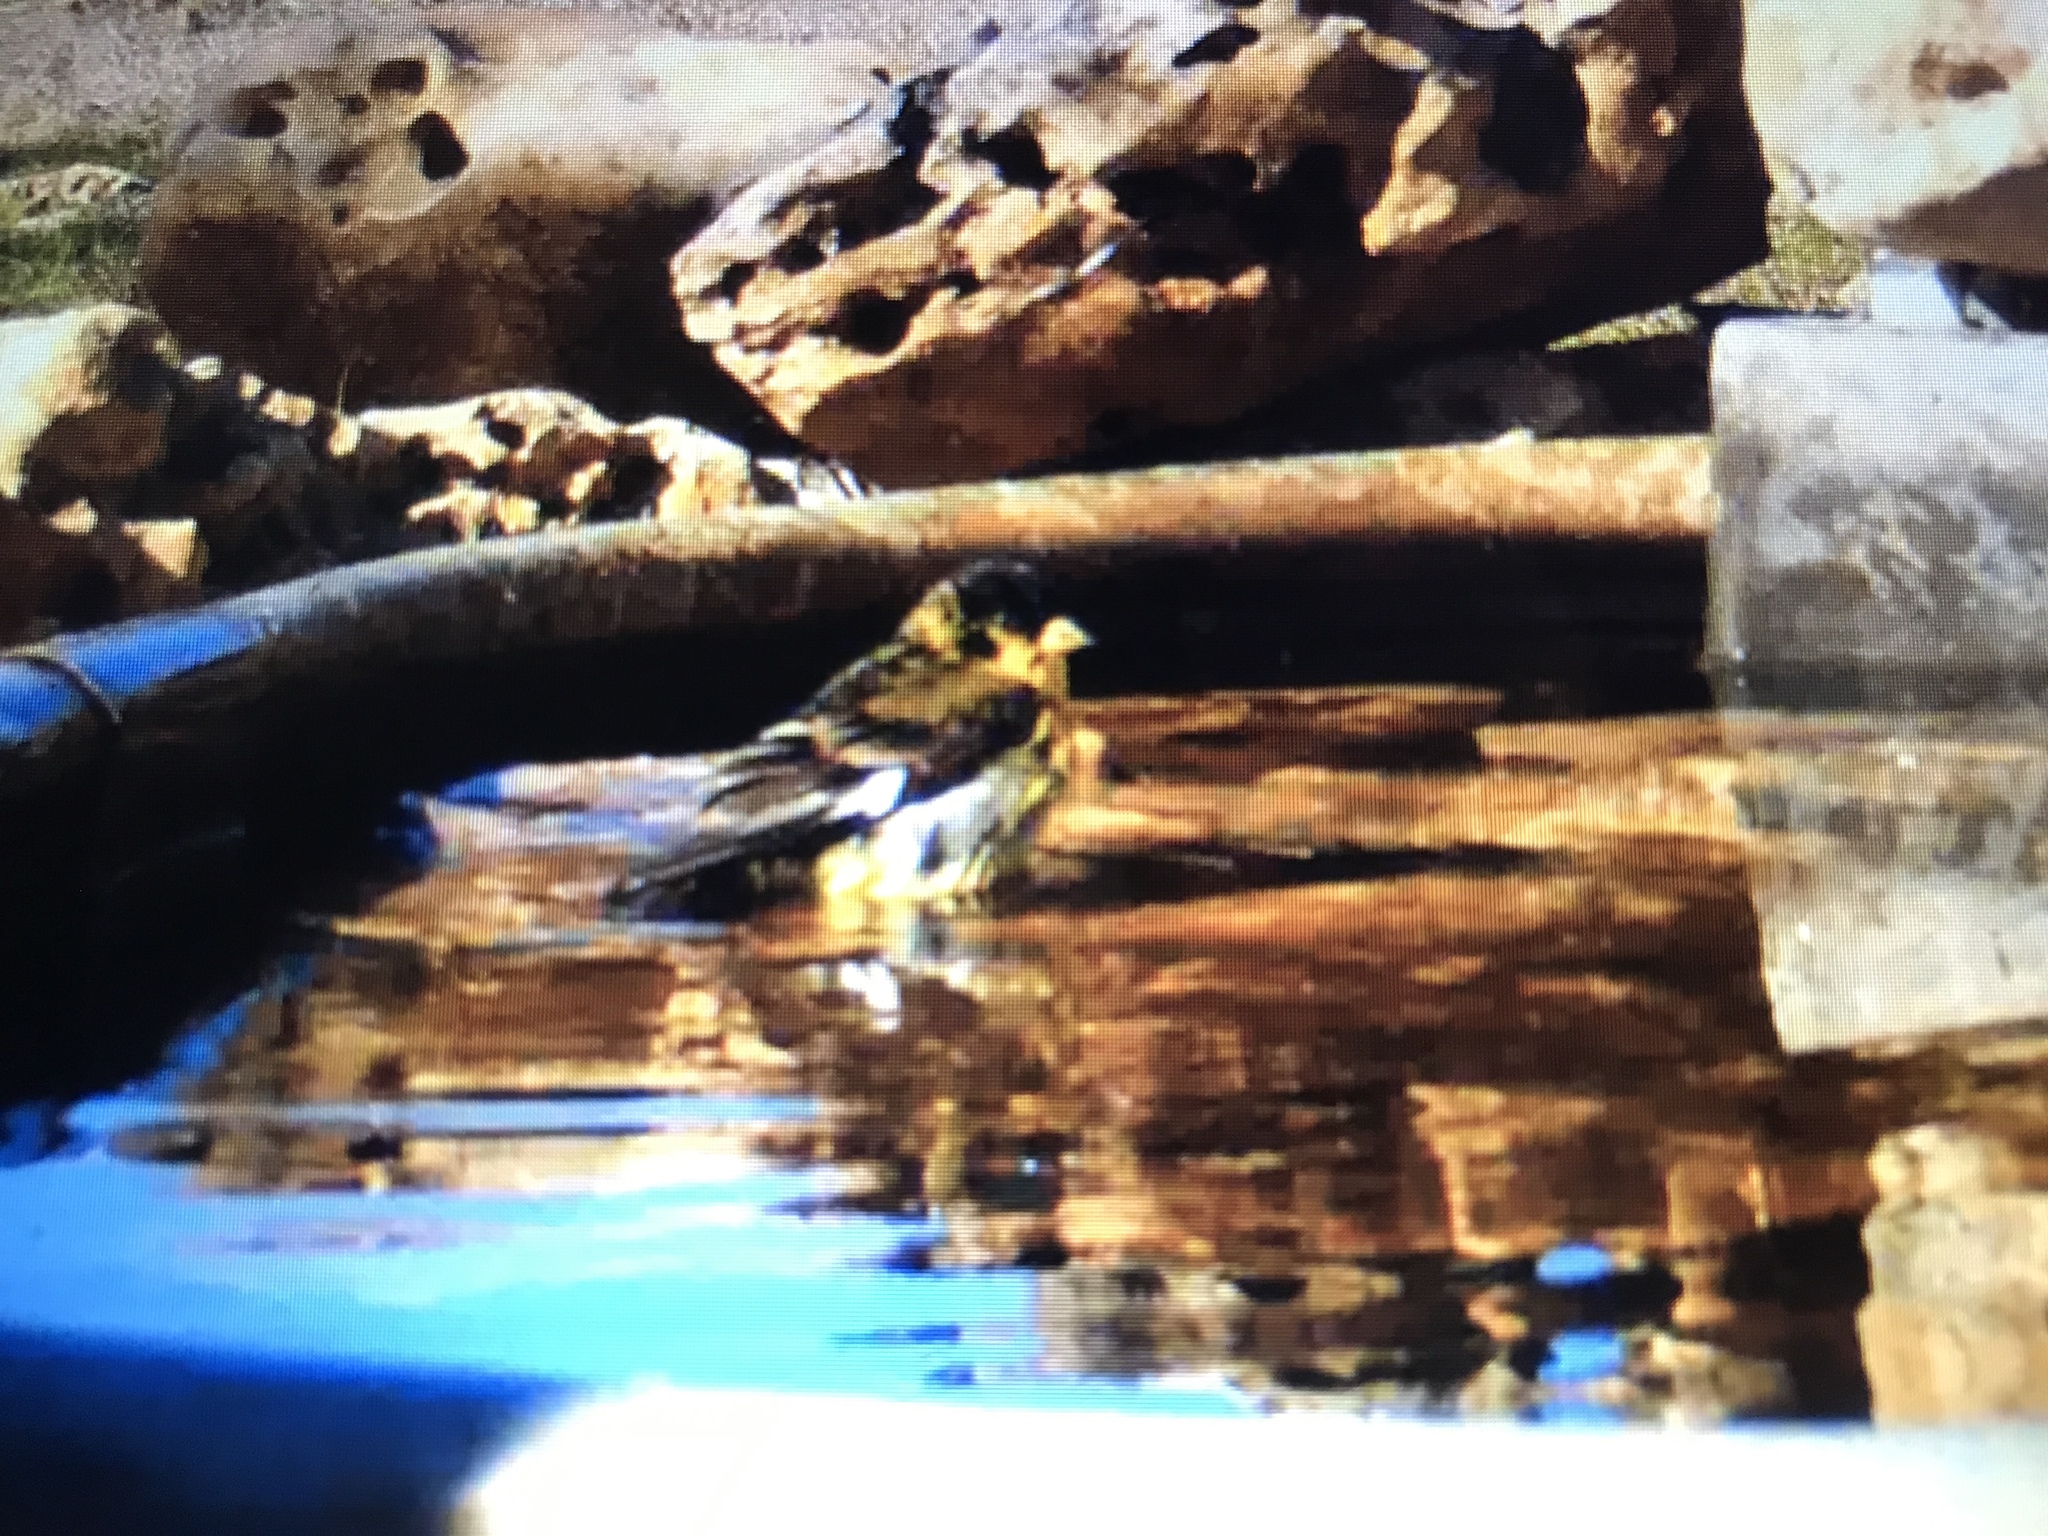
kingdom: Animalia
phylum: Chordata
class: Aves
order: Passeriformes
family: Fringillidae
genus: Spinus
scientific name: Spinus psaltria
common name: Lesser goldfinch
